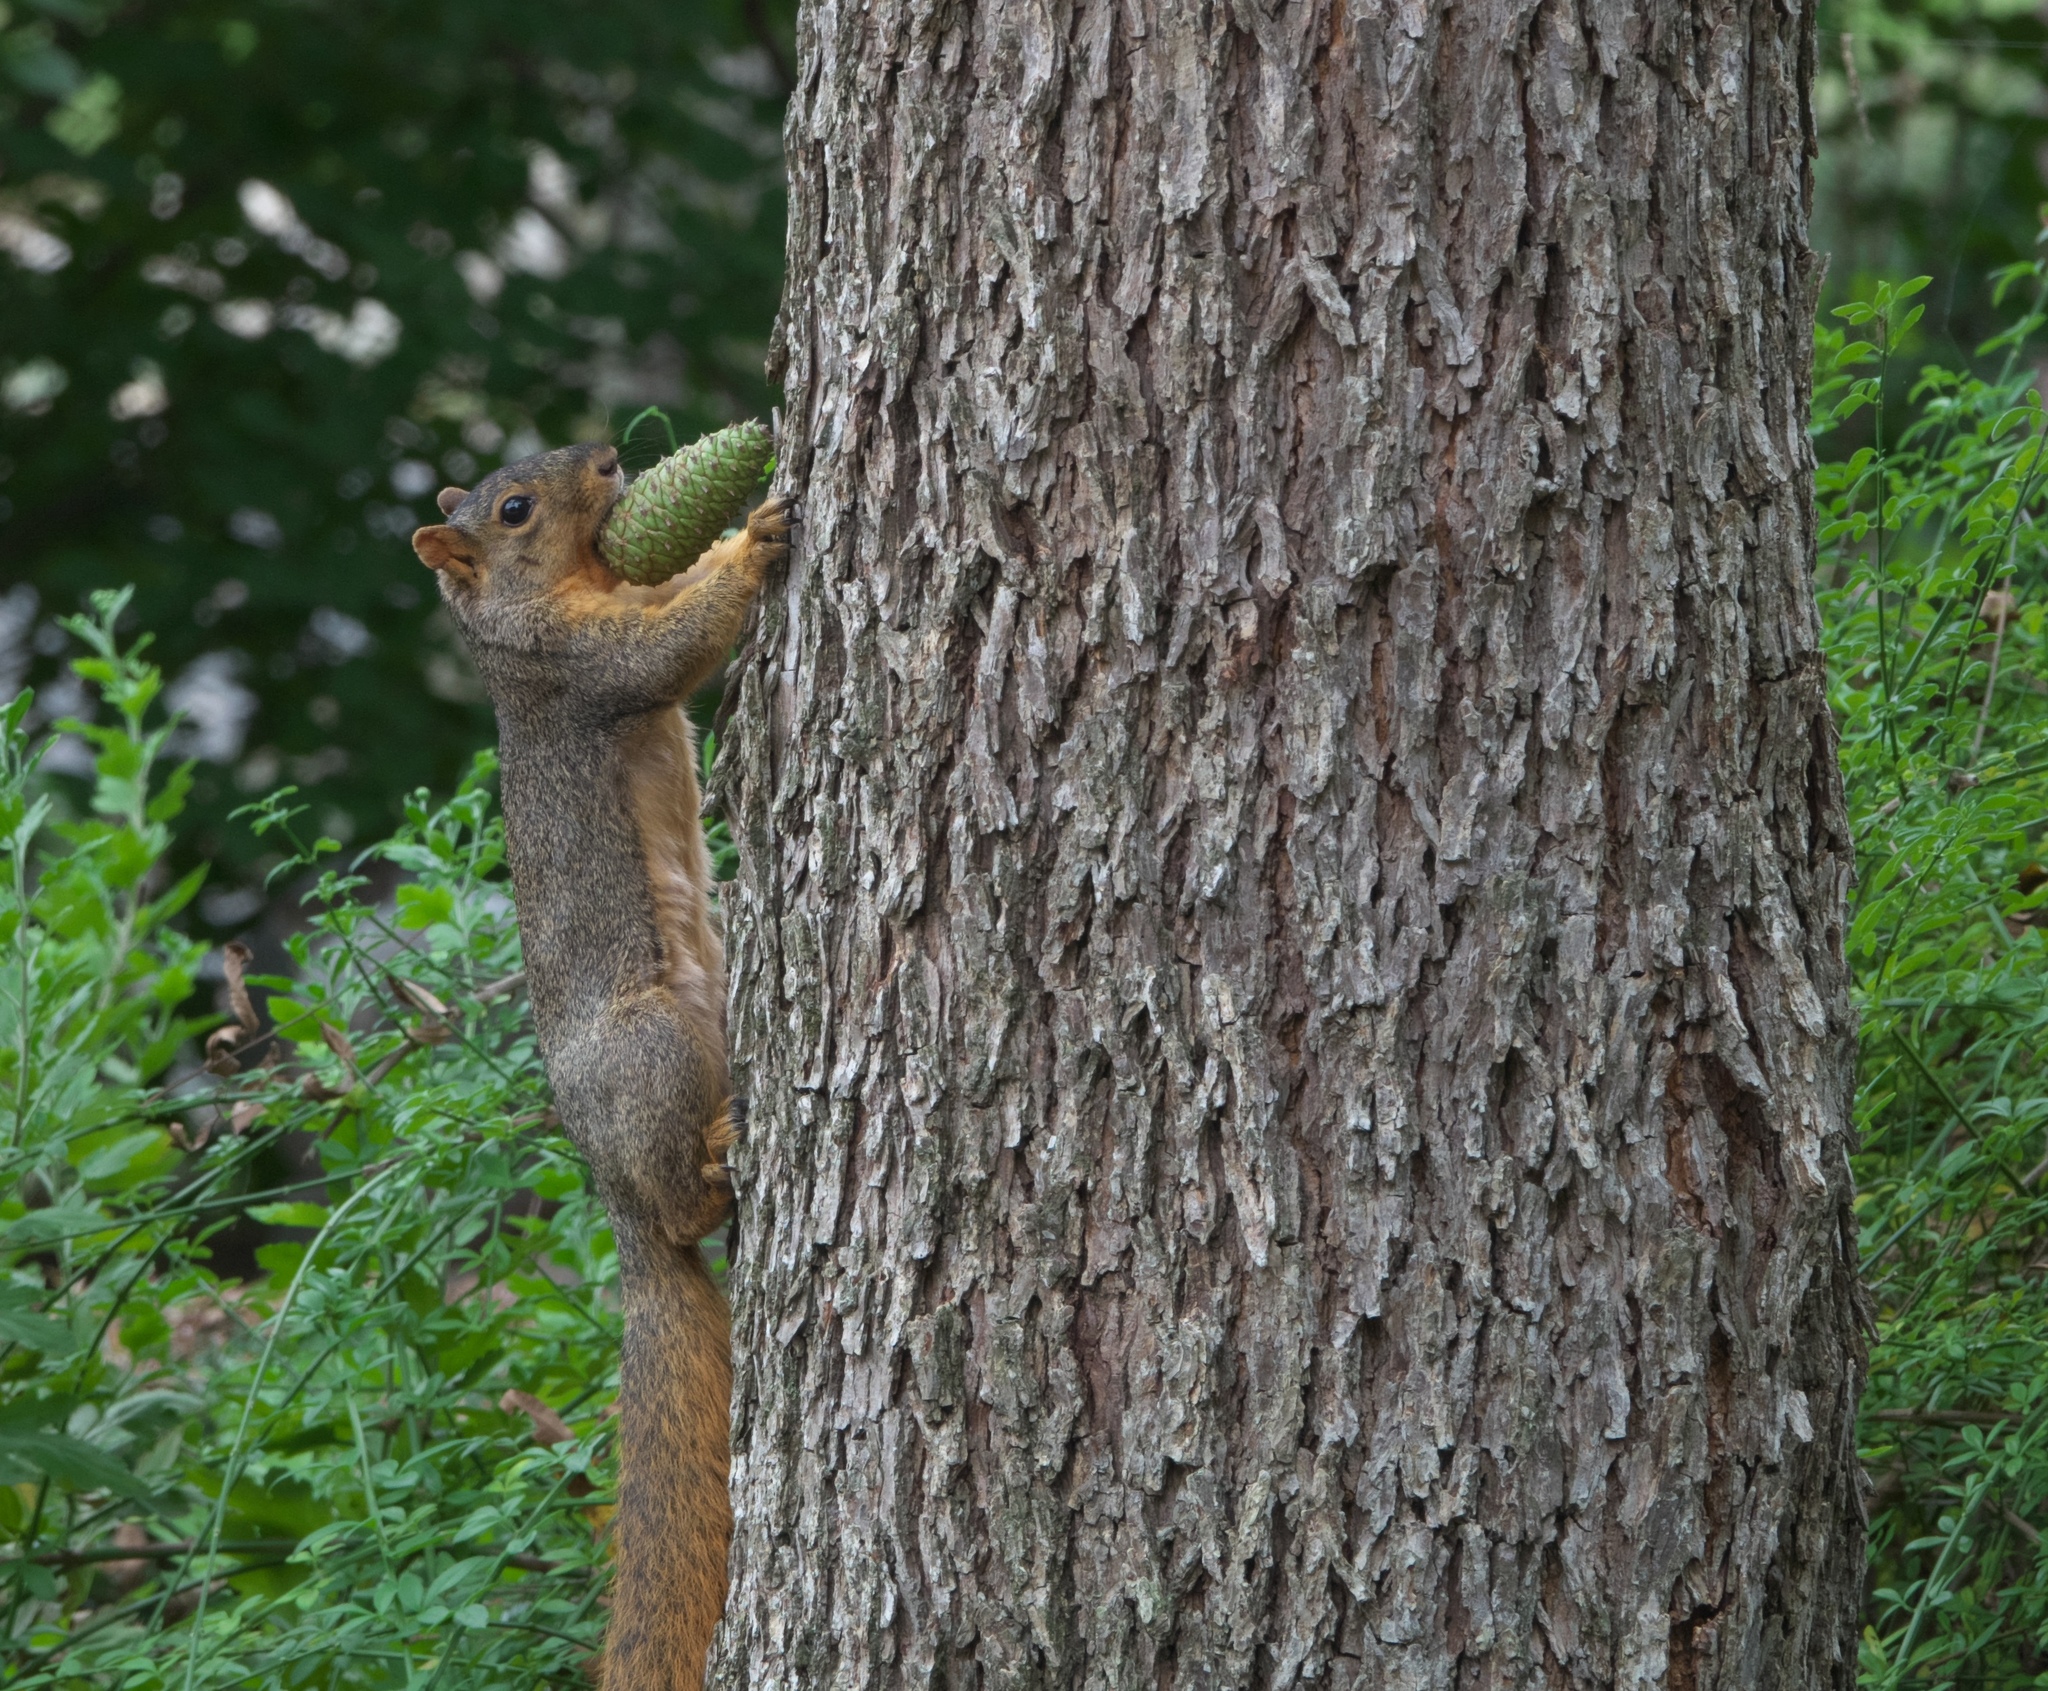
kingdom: Animalia
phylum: Chordata
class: Mammalia
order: Rodentia
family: Sciuridae
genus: Sciurus
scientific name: Sciurus niger
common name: Fox squirrel
